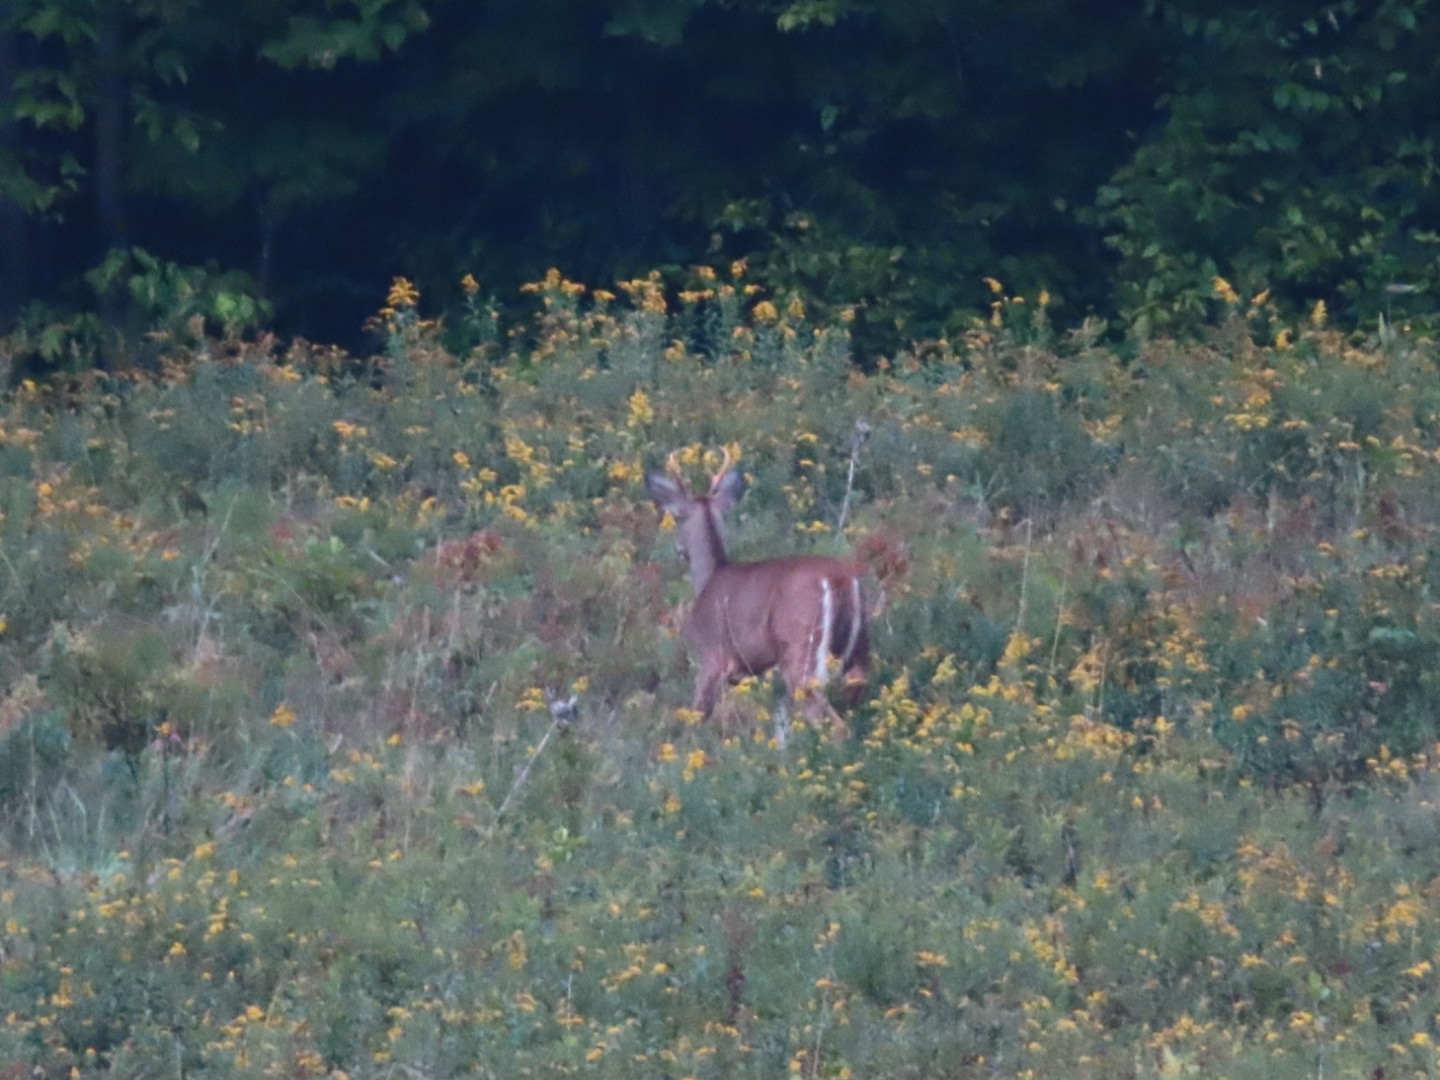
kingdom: Animalia
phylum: Chordata
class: Mammalia
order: Artiodactyla
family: Cervidae
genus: Odocoileus
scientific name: Odocoileus virginianus
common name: White-tailed deer
